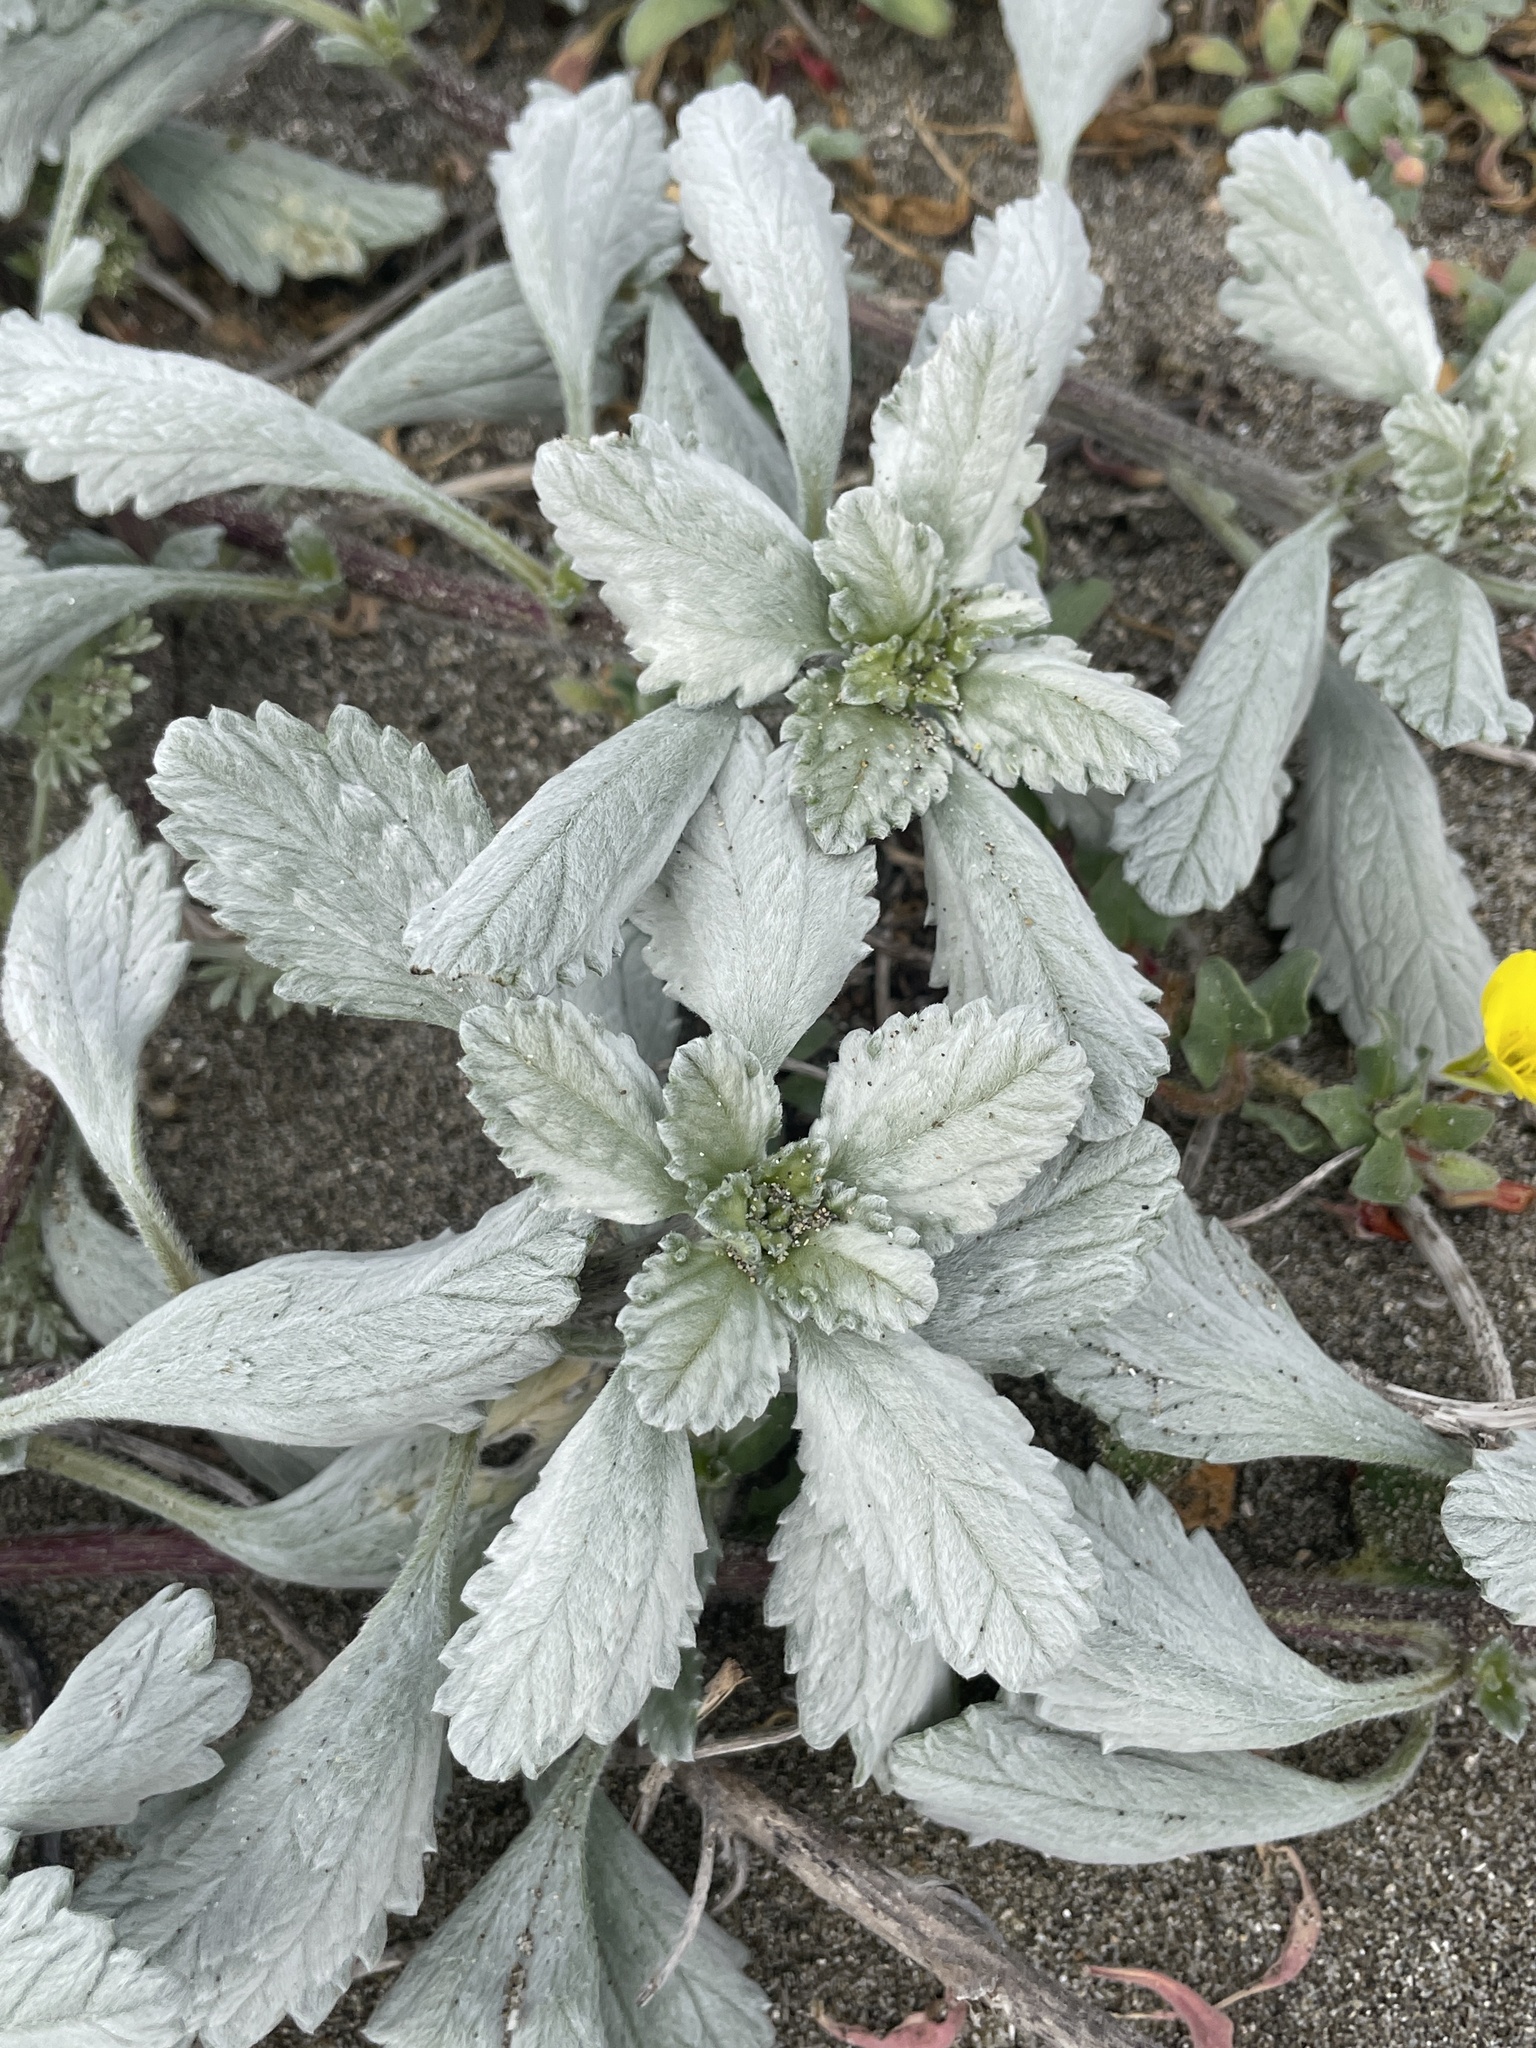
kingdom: Plantae
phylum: Tracheophyta
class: Magnoliopsida
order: Asterales
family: Asteraceae
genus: Ambrosia
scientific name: Ambrosia chamissonis
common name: Beachbur
